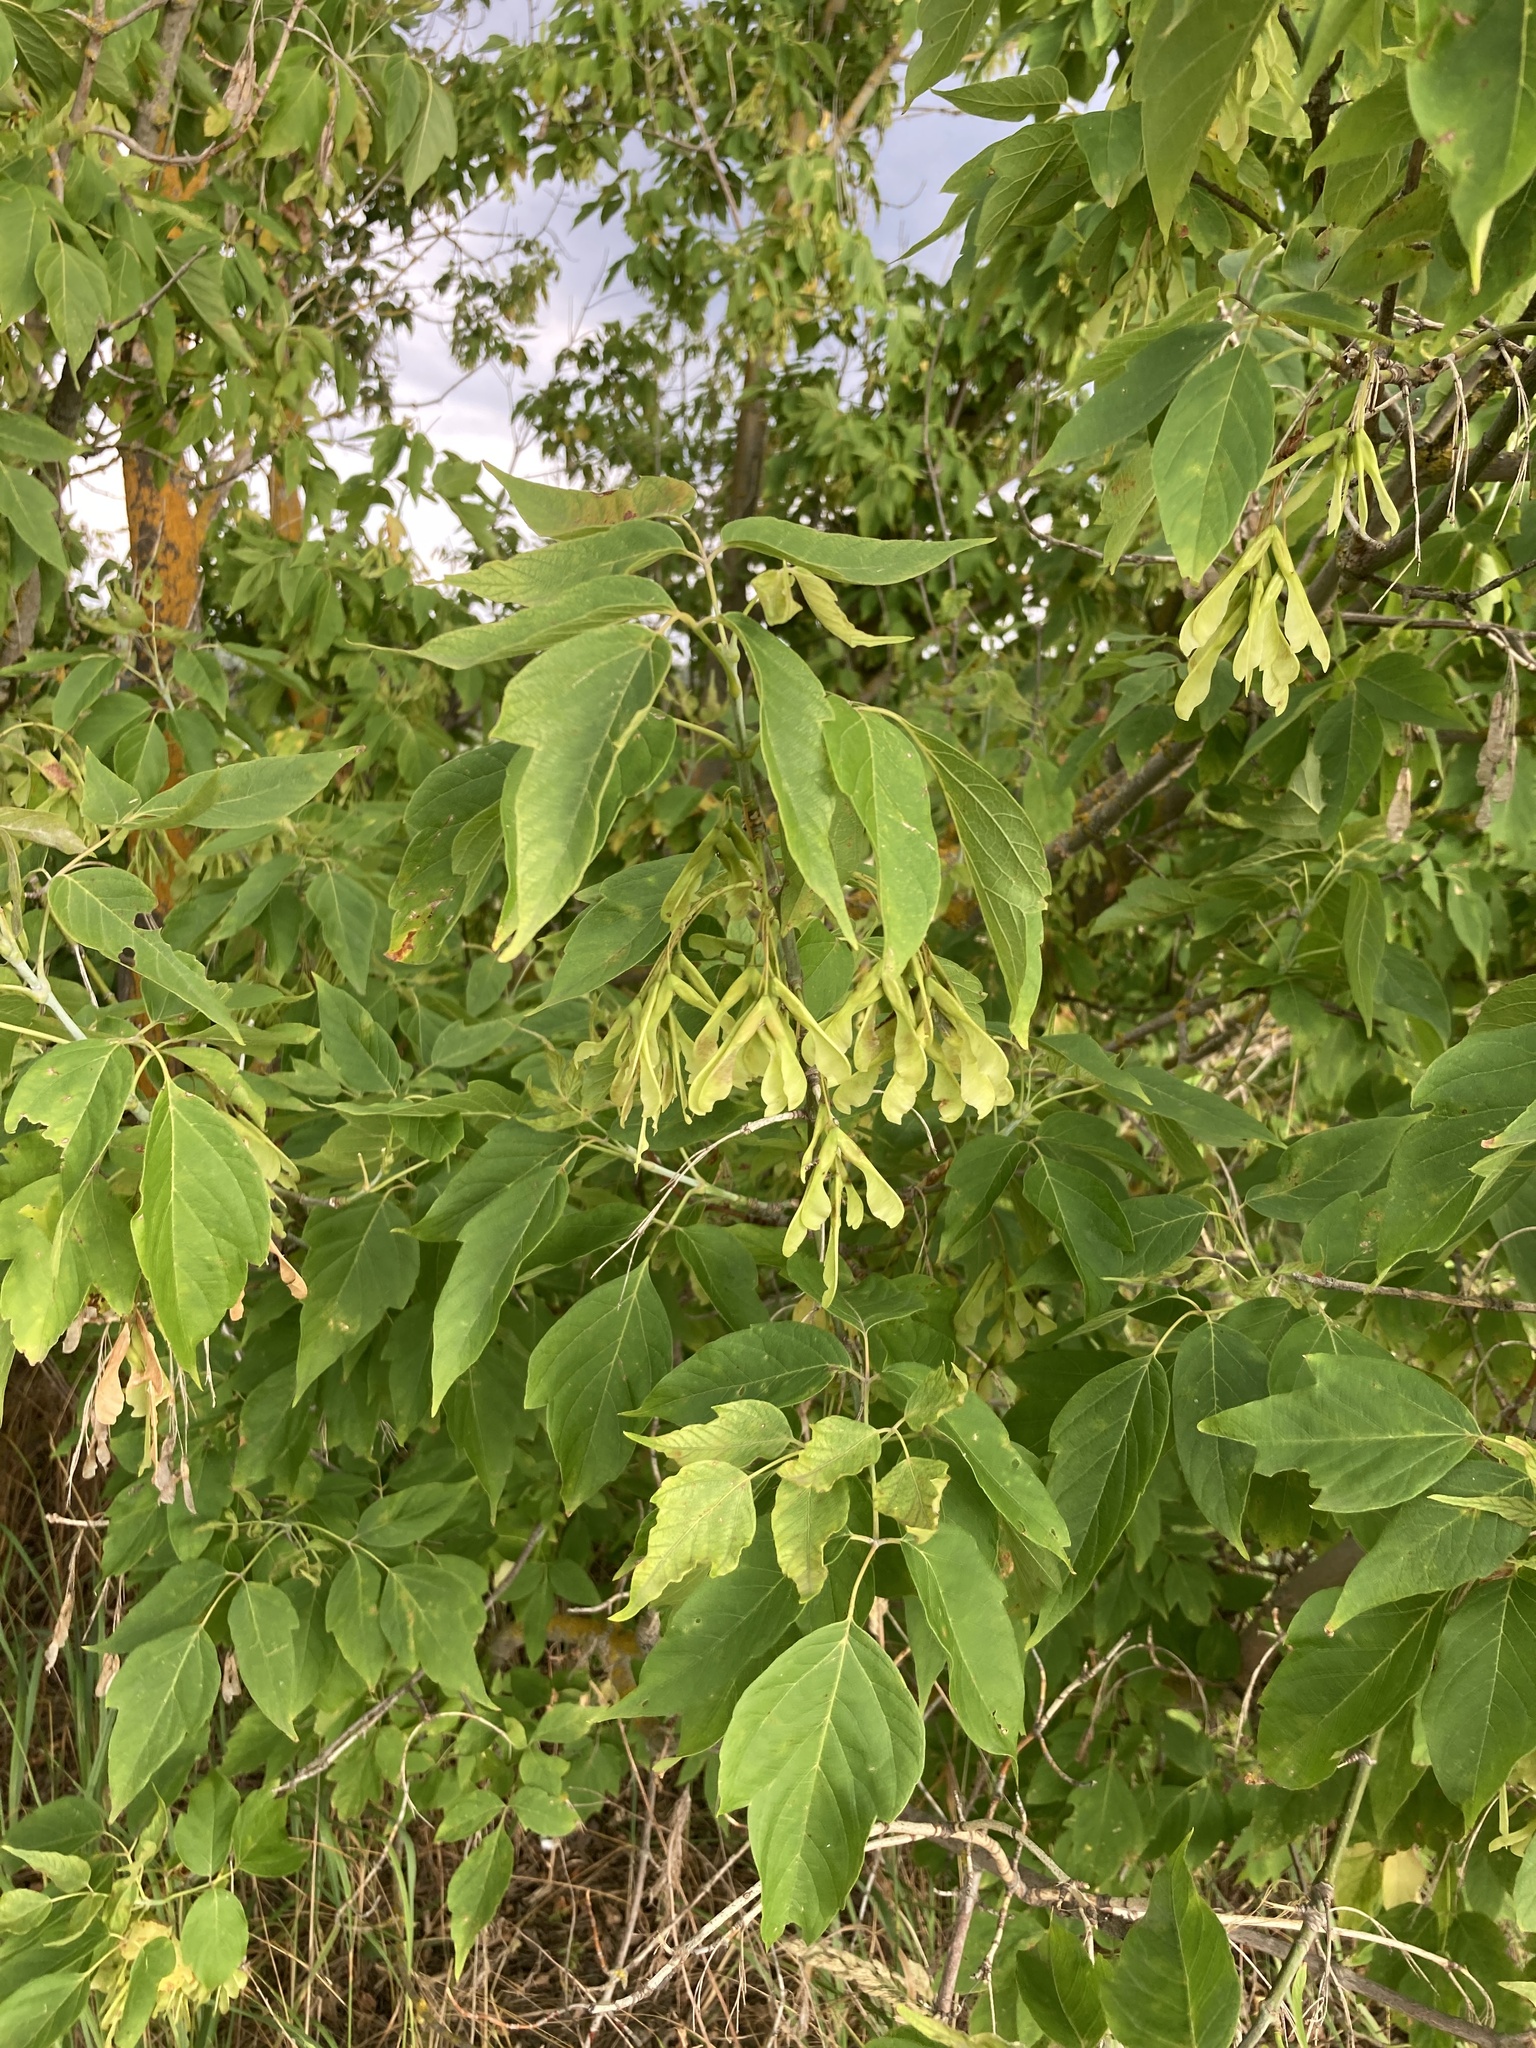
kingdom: Plantae
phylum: Tracheophyta
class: Magnoliopsida
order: Sapindales
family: Sapindaceae
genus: Acer
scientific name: Acer negundo
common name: Ashleaf maple
